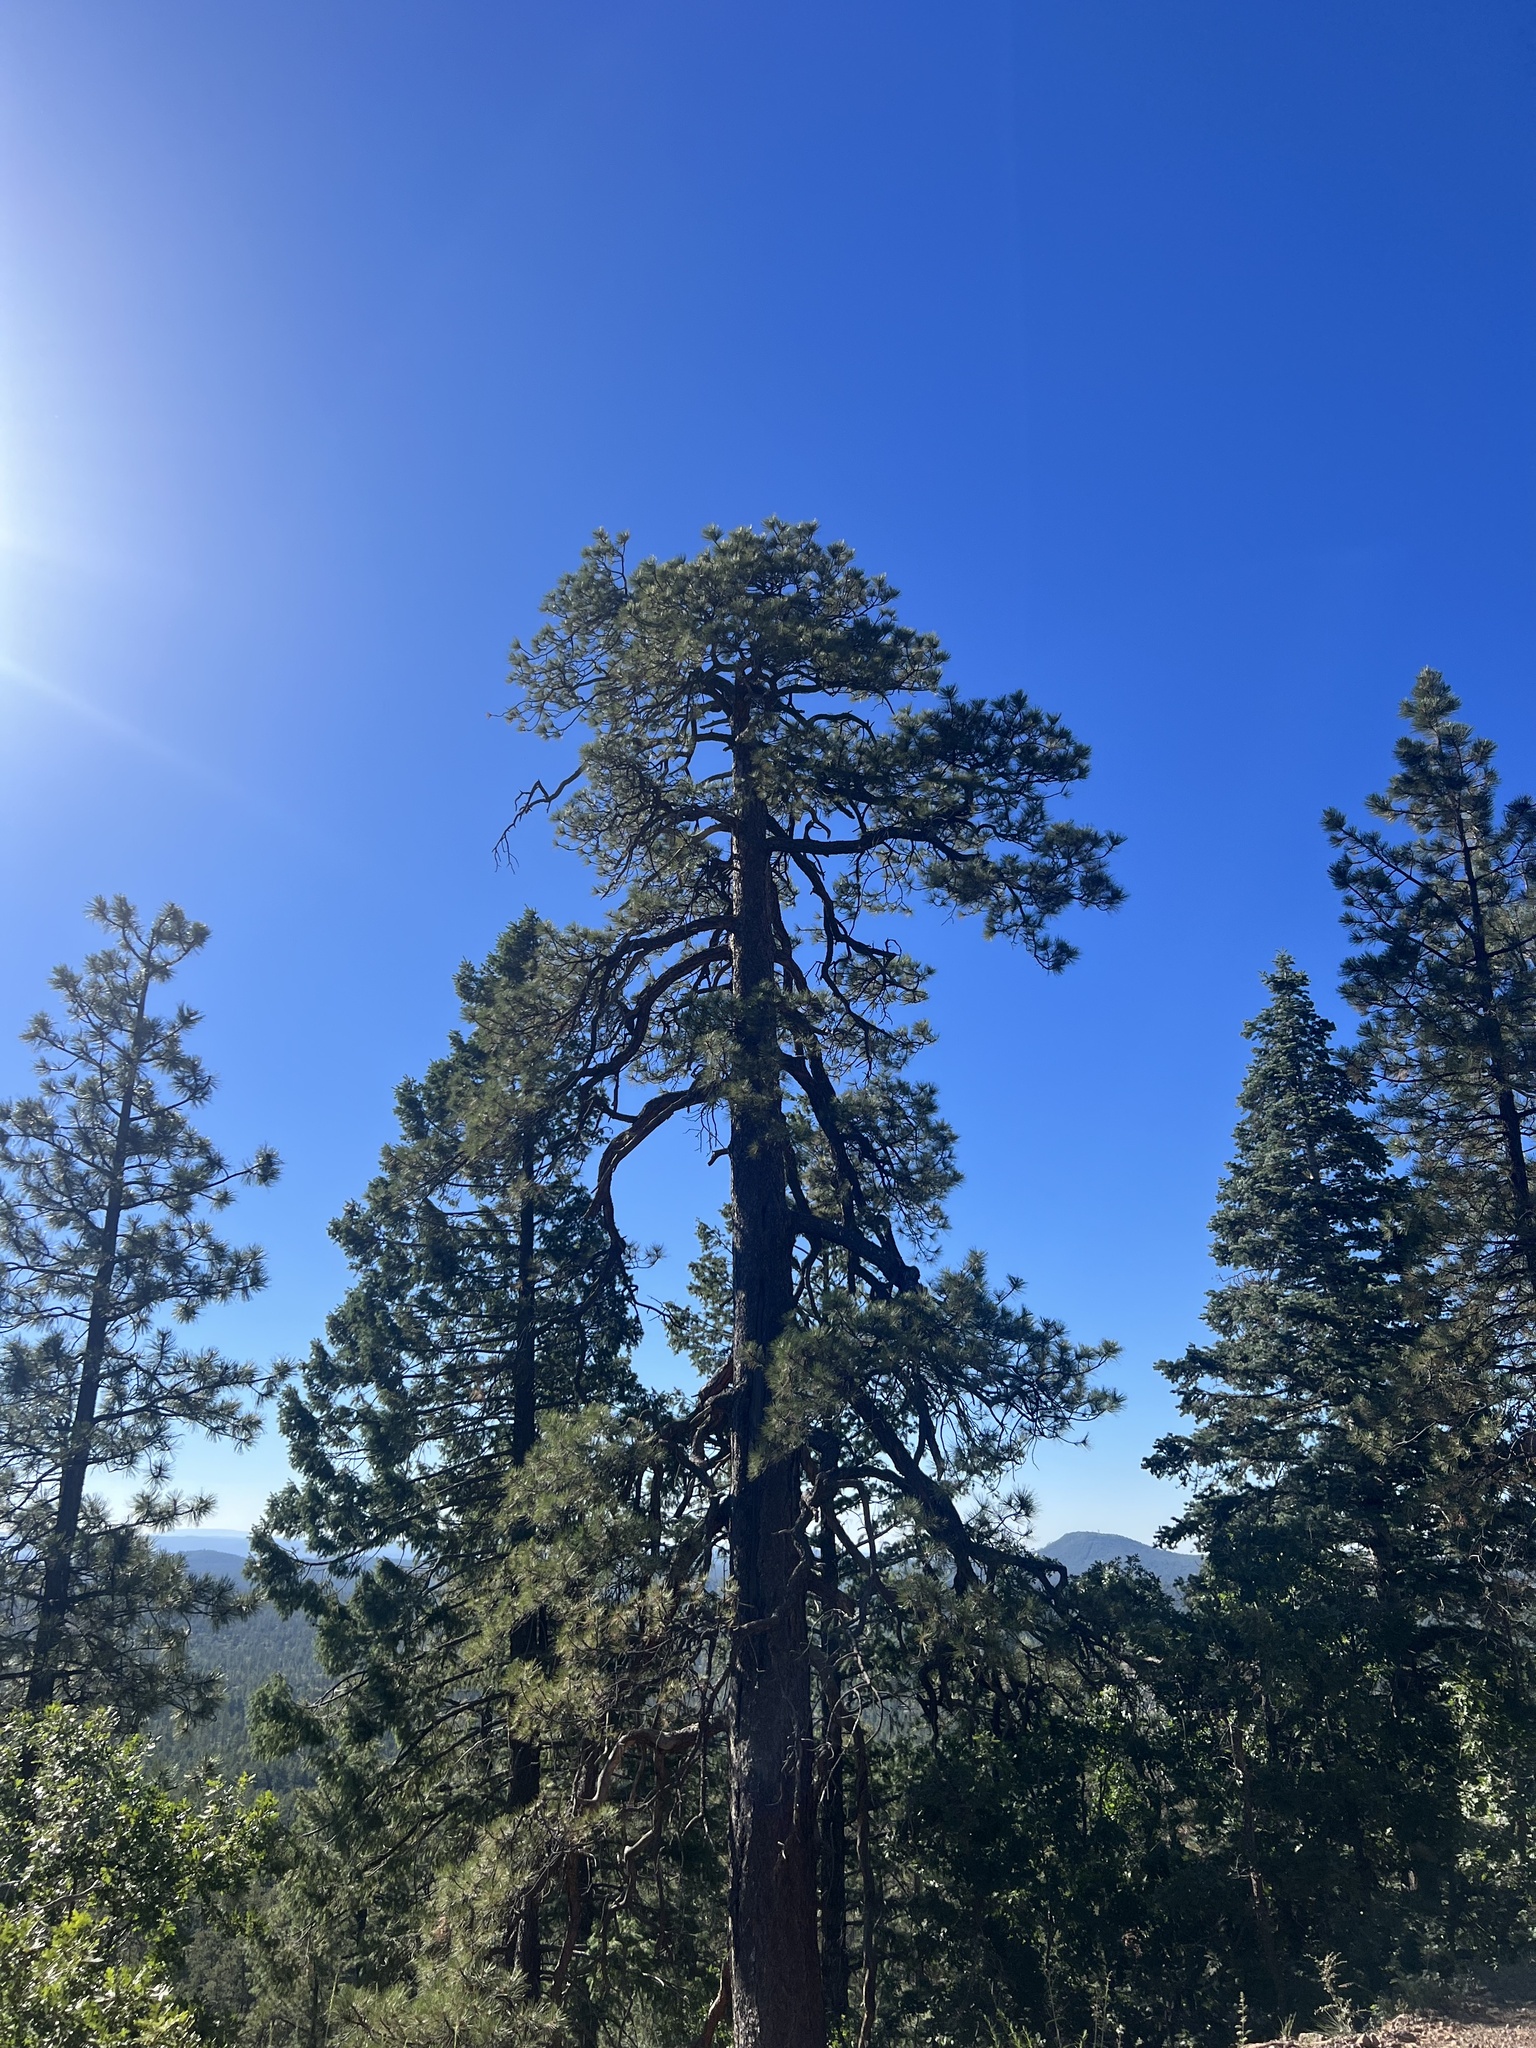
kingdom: Plantae
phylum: Tracheophyta
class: Pinopsida
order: Pinales
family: Pinaceae
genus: Pinus
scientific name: Pinus ponderosa
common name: Western yellow-pine
